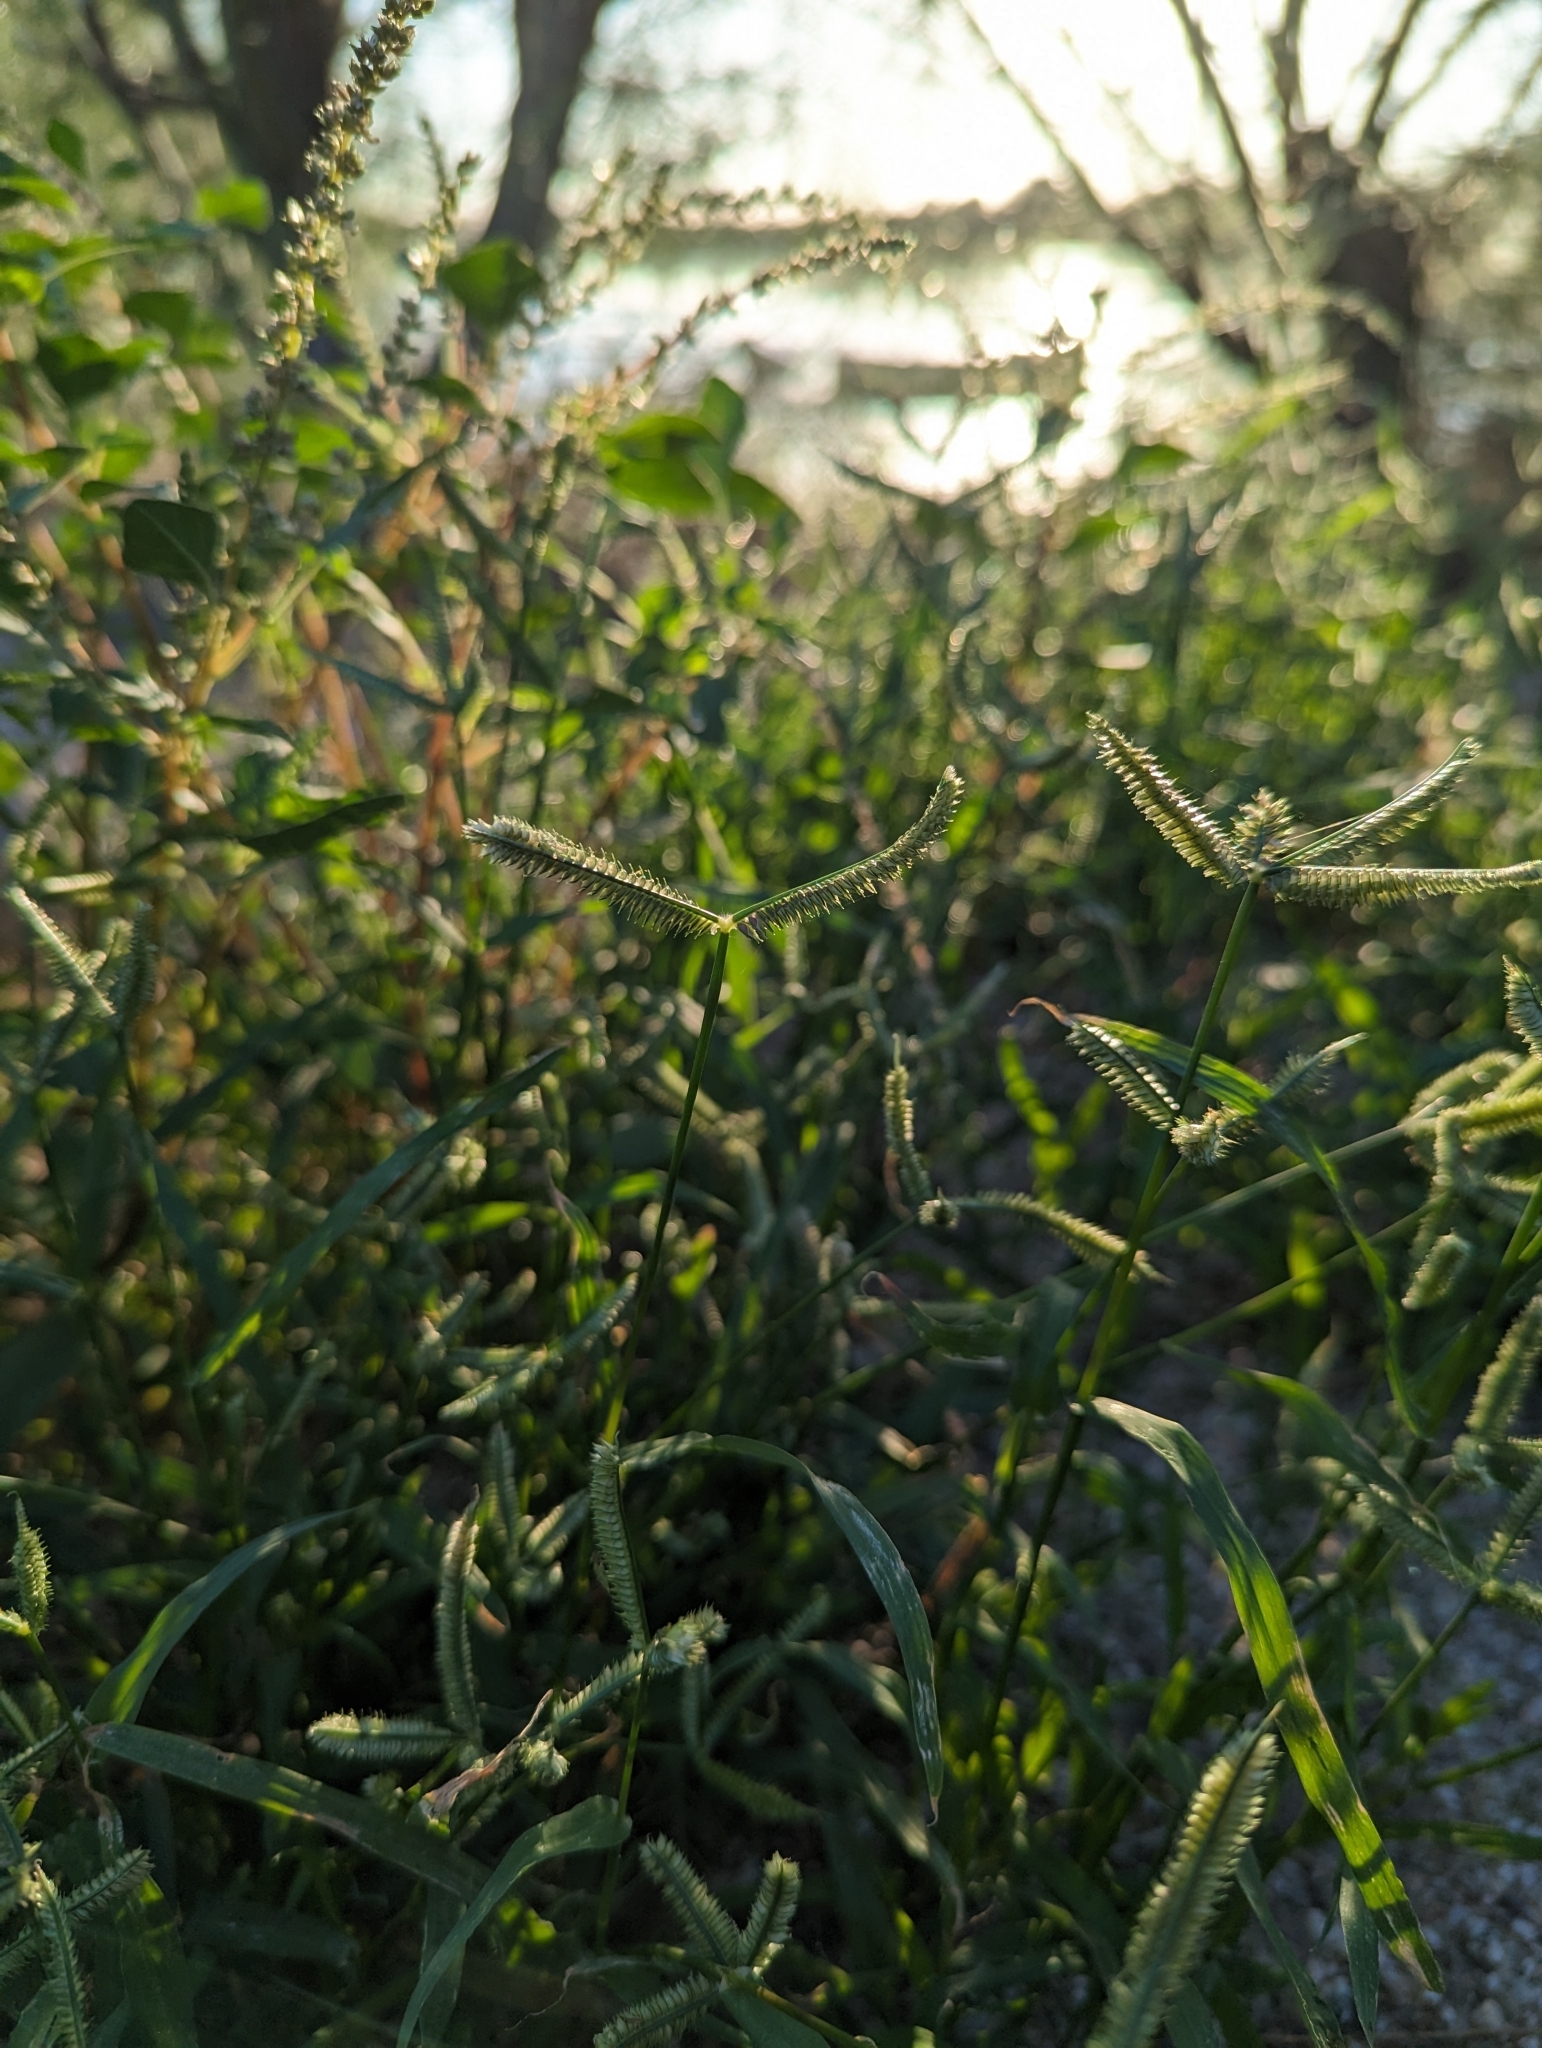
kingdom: Plantae
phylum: Tracheophyta
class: Liliopsida
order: Poales
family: Poaceae
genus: Dactyloctenium
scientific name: Dactyloctenium aegyptium
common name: Egyptian grass
